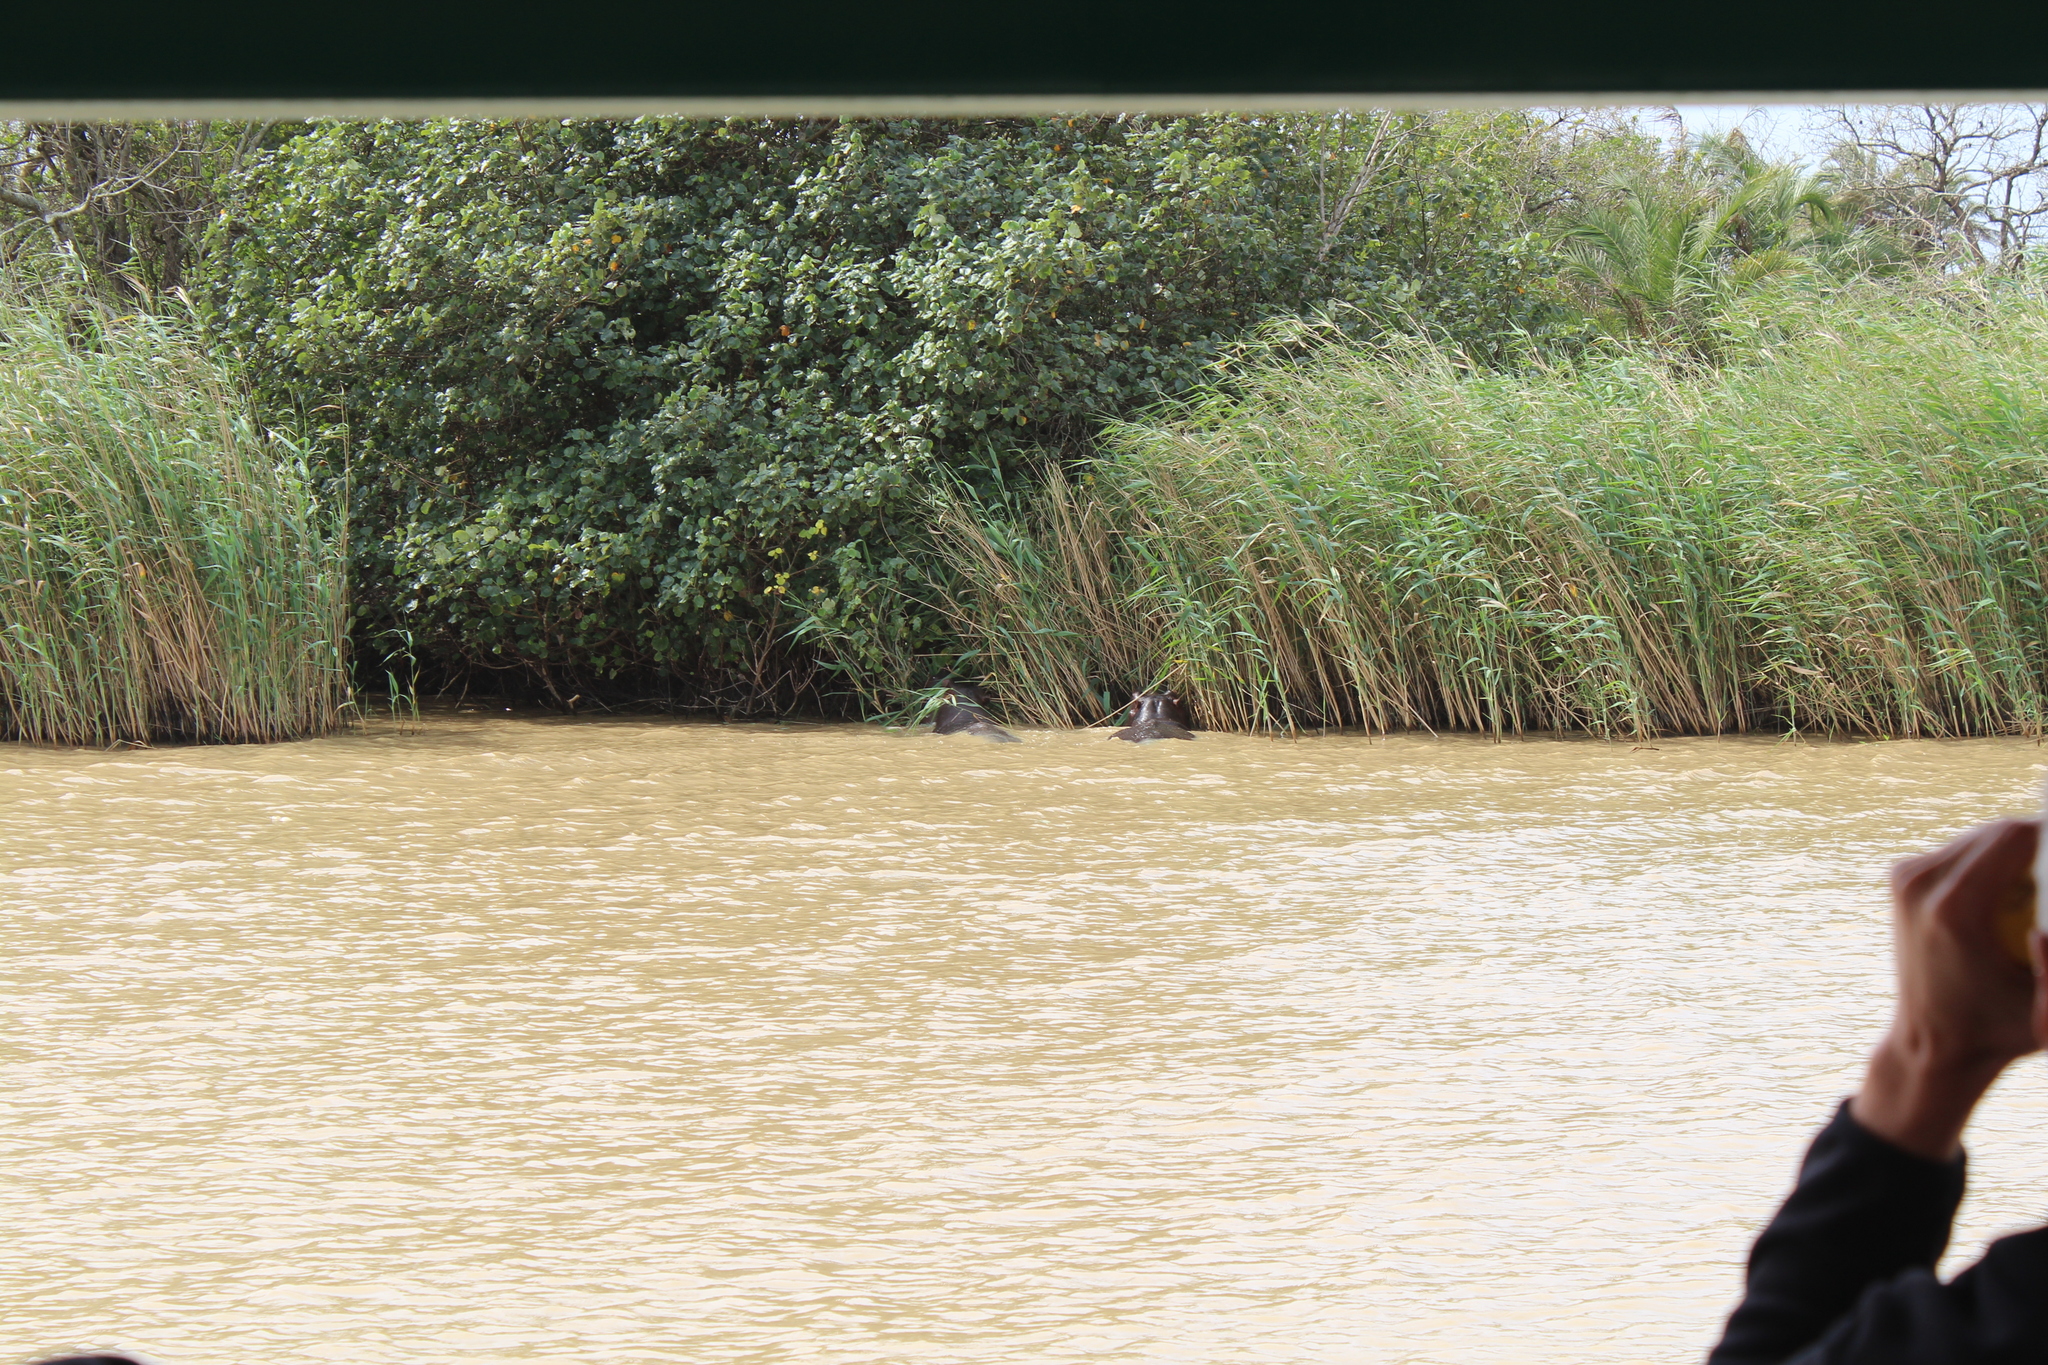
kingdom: Animalia
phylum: Chordata
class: Mammalia
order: Artiodactyla
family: Hippopotamidae
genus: Hippopotamus
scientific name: Hippopotamus amphibius
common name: Common hippopotamus
